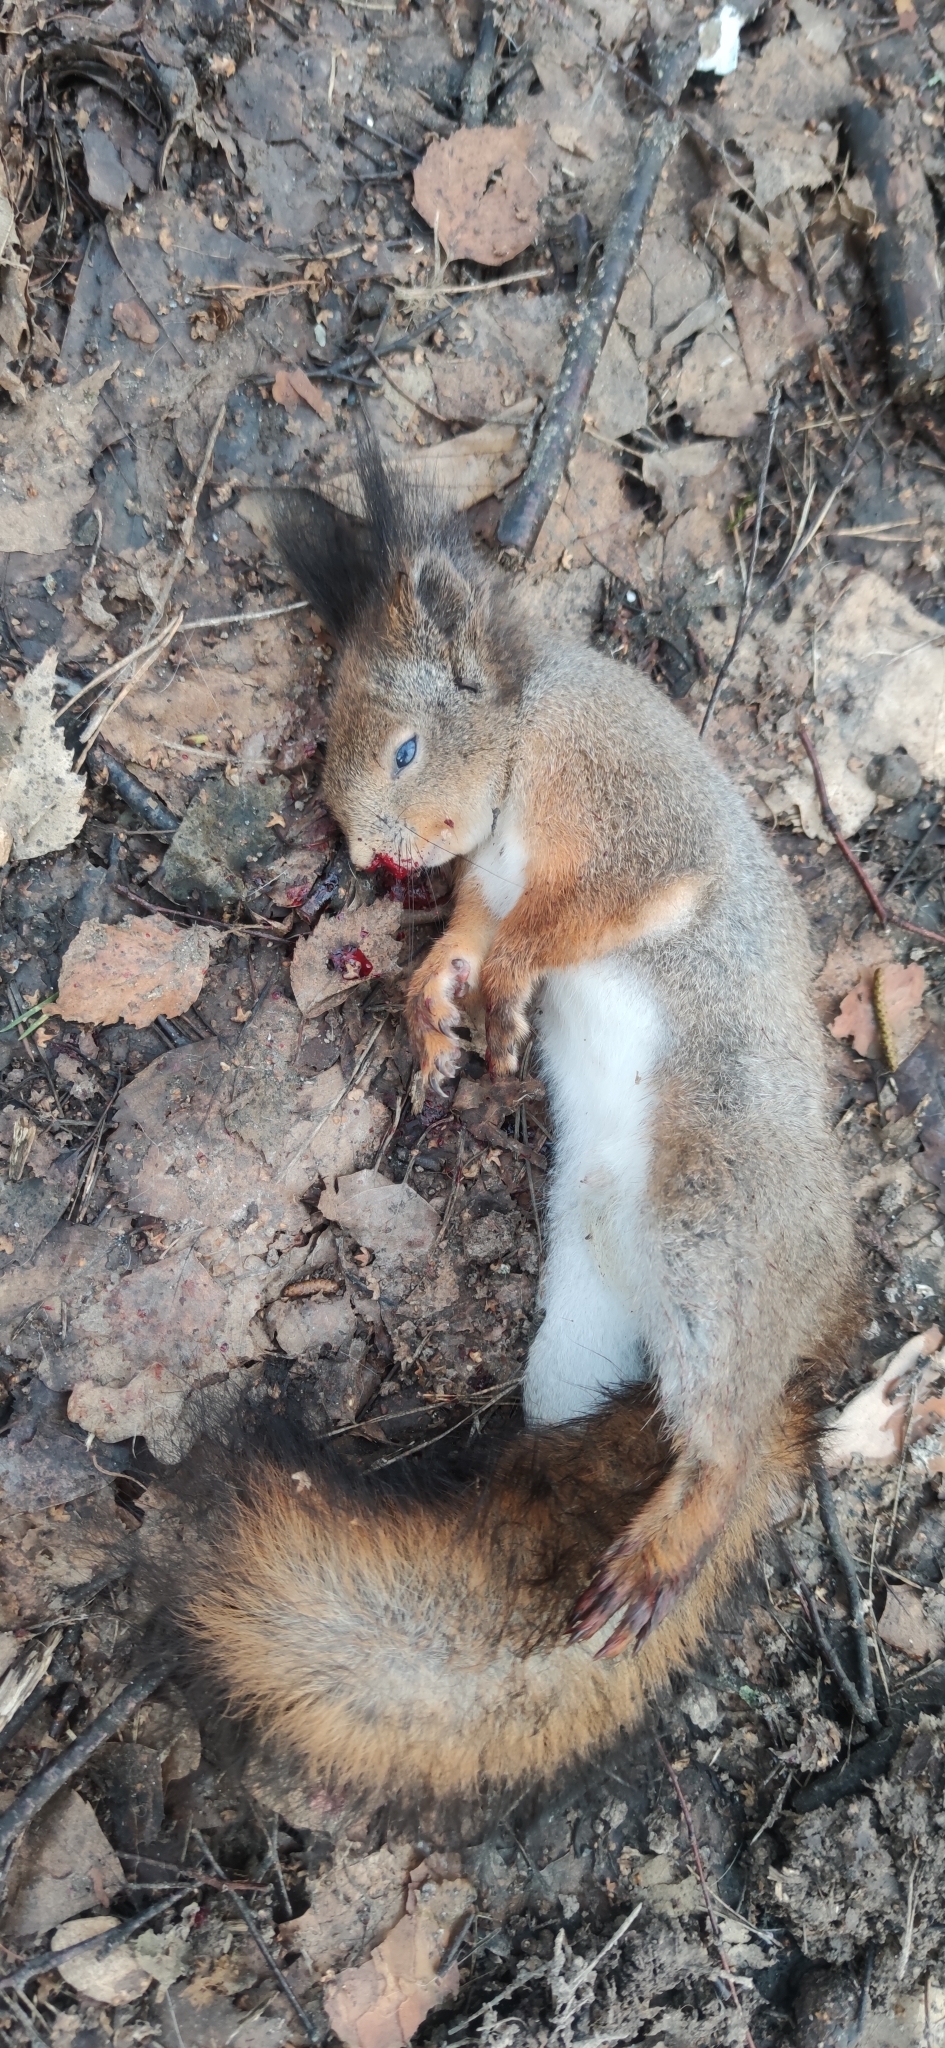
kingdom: Animalia
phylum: Chordata
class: Mammalia
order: Rodentia
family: Sciuridae
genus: Sciurus
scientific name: Sciurus vulgaris
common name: Eurasian red squirrel
